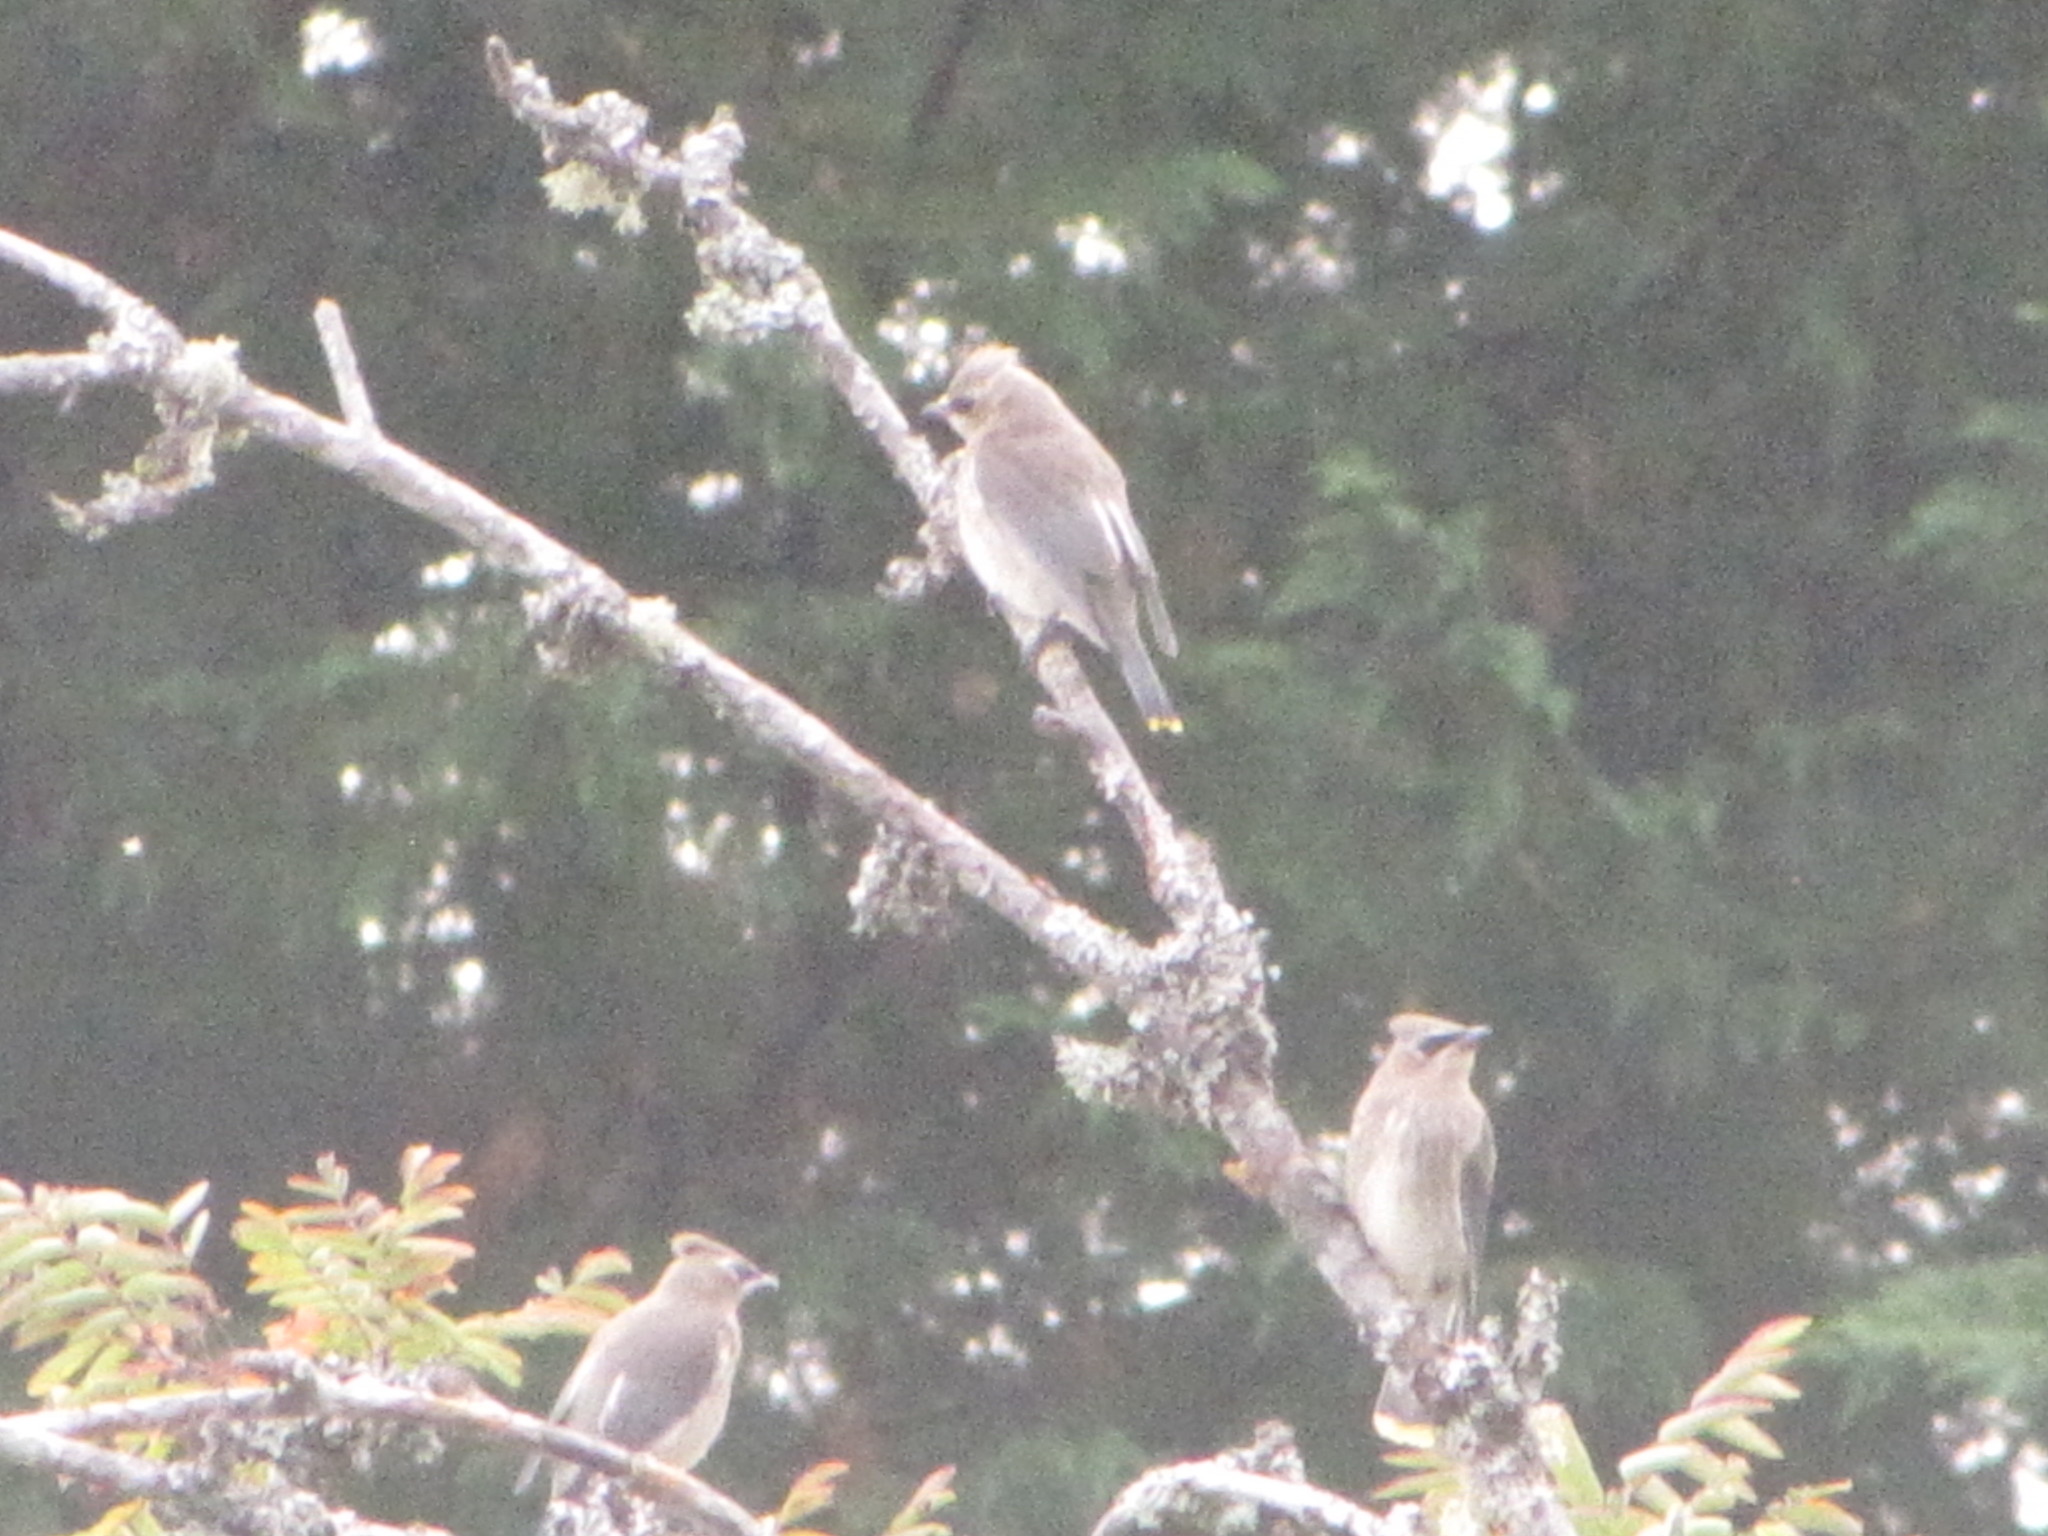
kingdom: Animalia
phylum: Chordata
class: Aves
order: Passeriformes
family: Bombycillidae
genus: Bombycilla
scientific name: Bombycilla cedrorum
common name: Cedar waxwing
